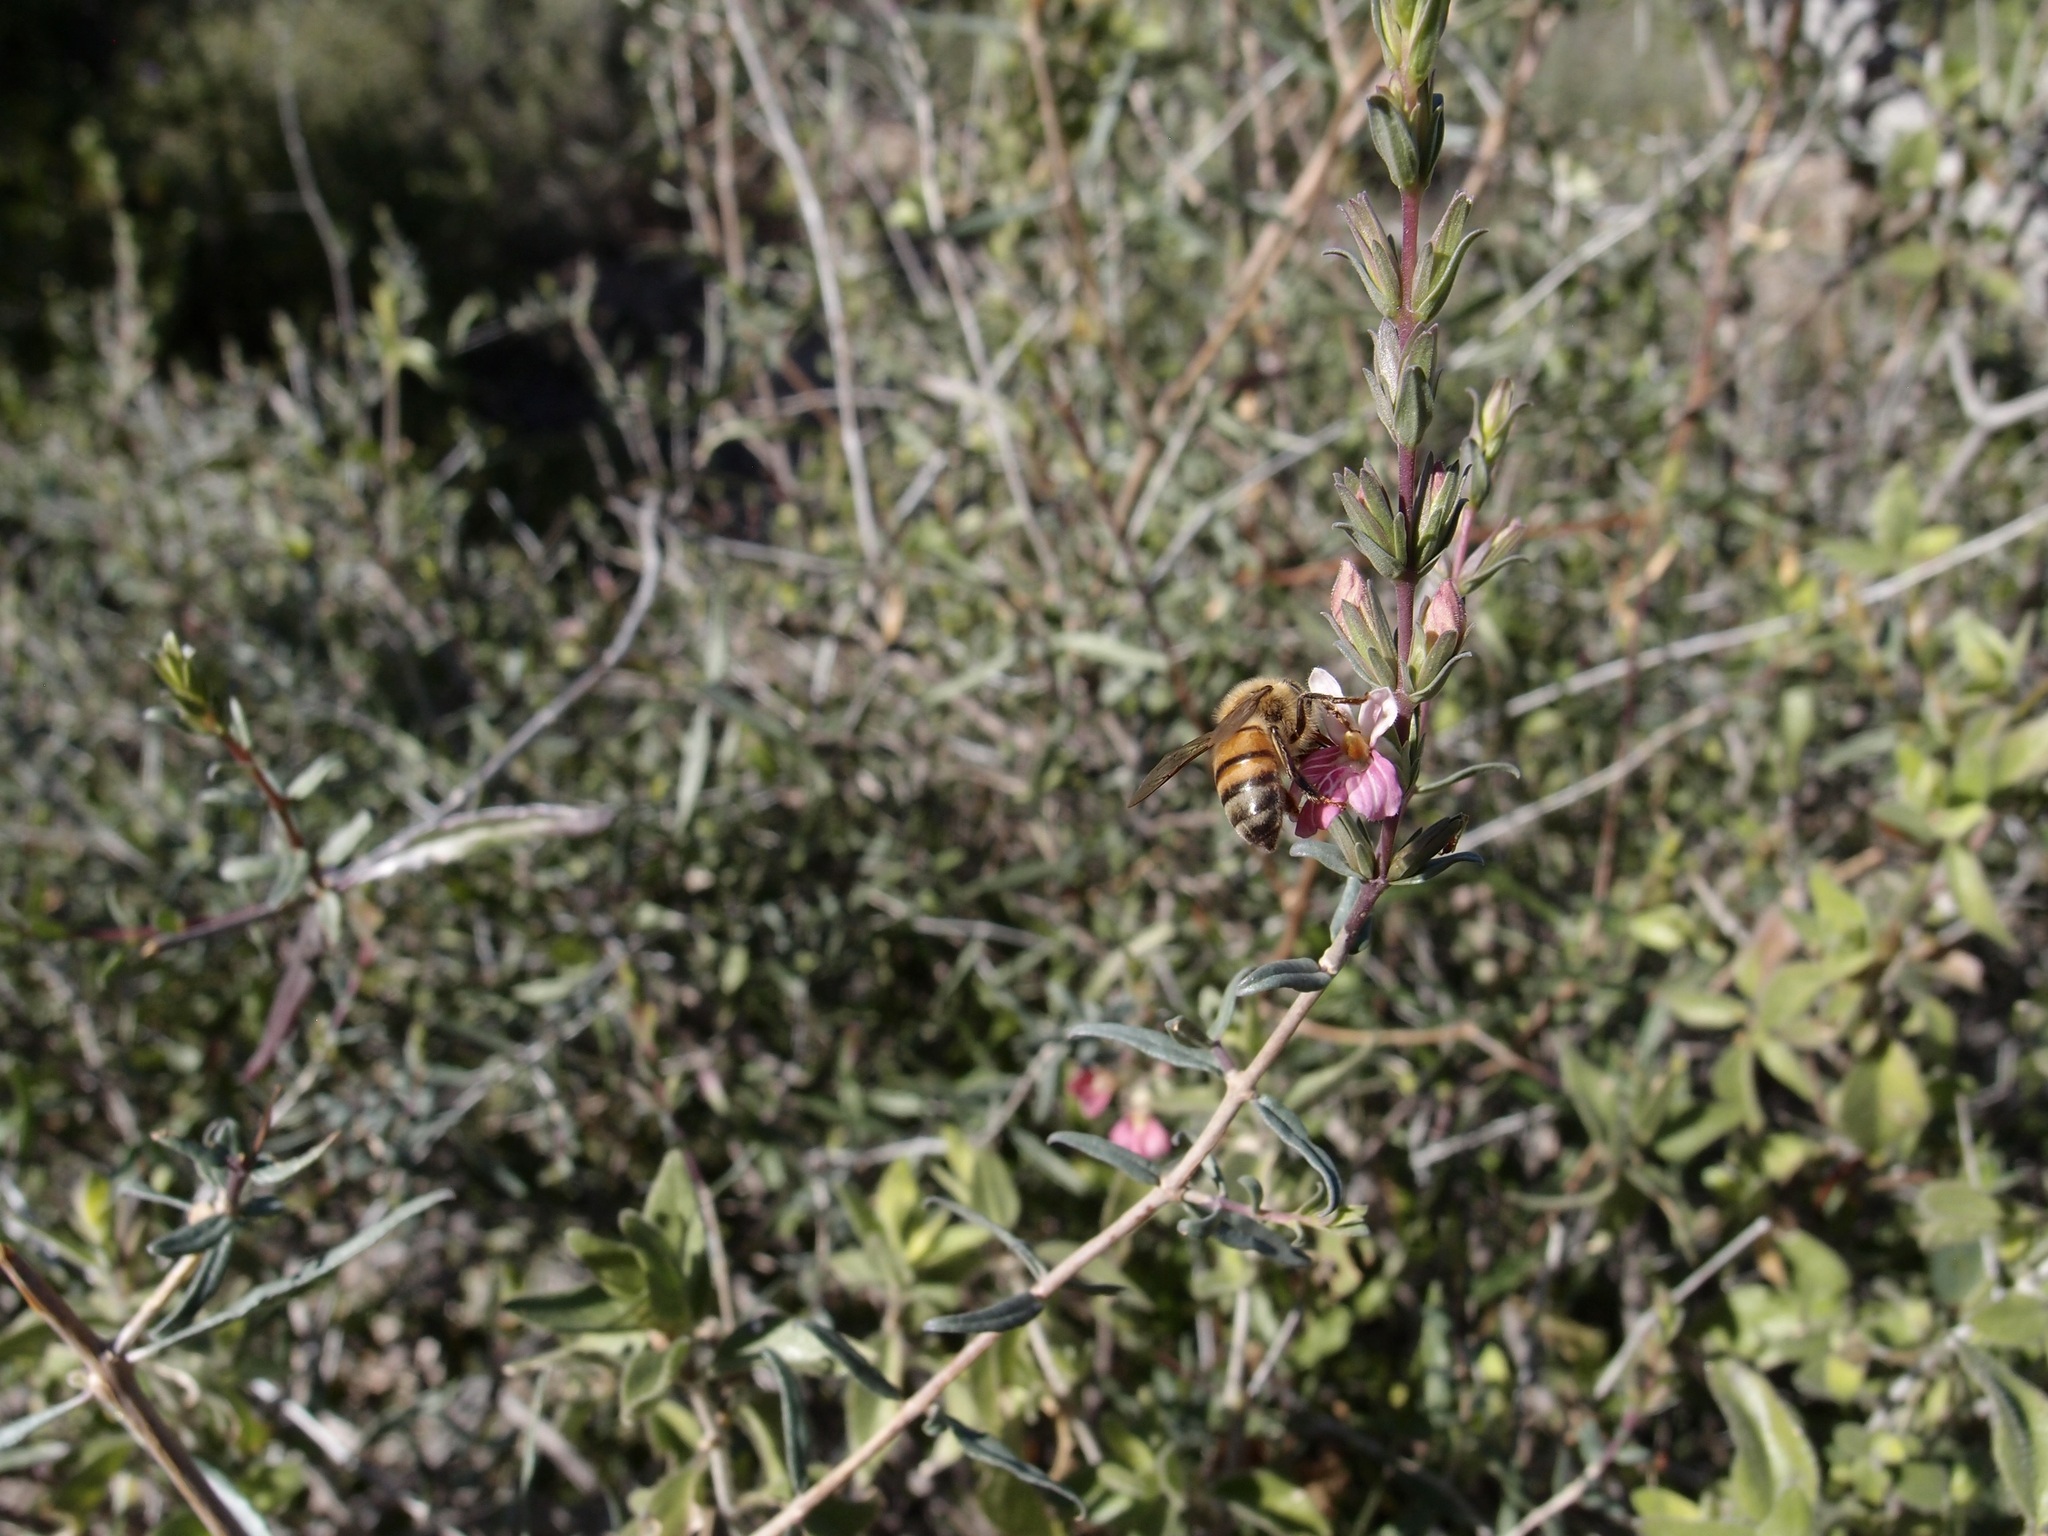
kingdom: Plantae
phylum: Tracheophyta
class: Magnoliopsida
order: Lamiales
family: Acanthaceae
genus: Holographis
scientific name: Holographis virgata
